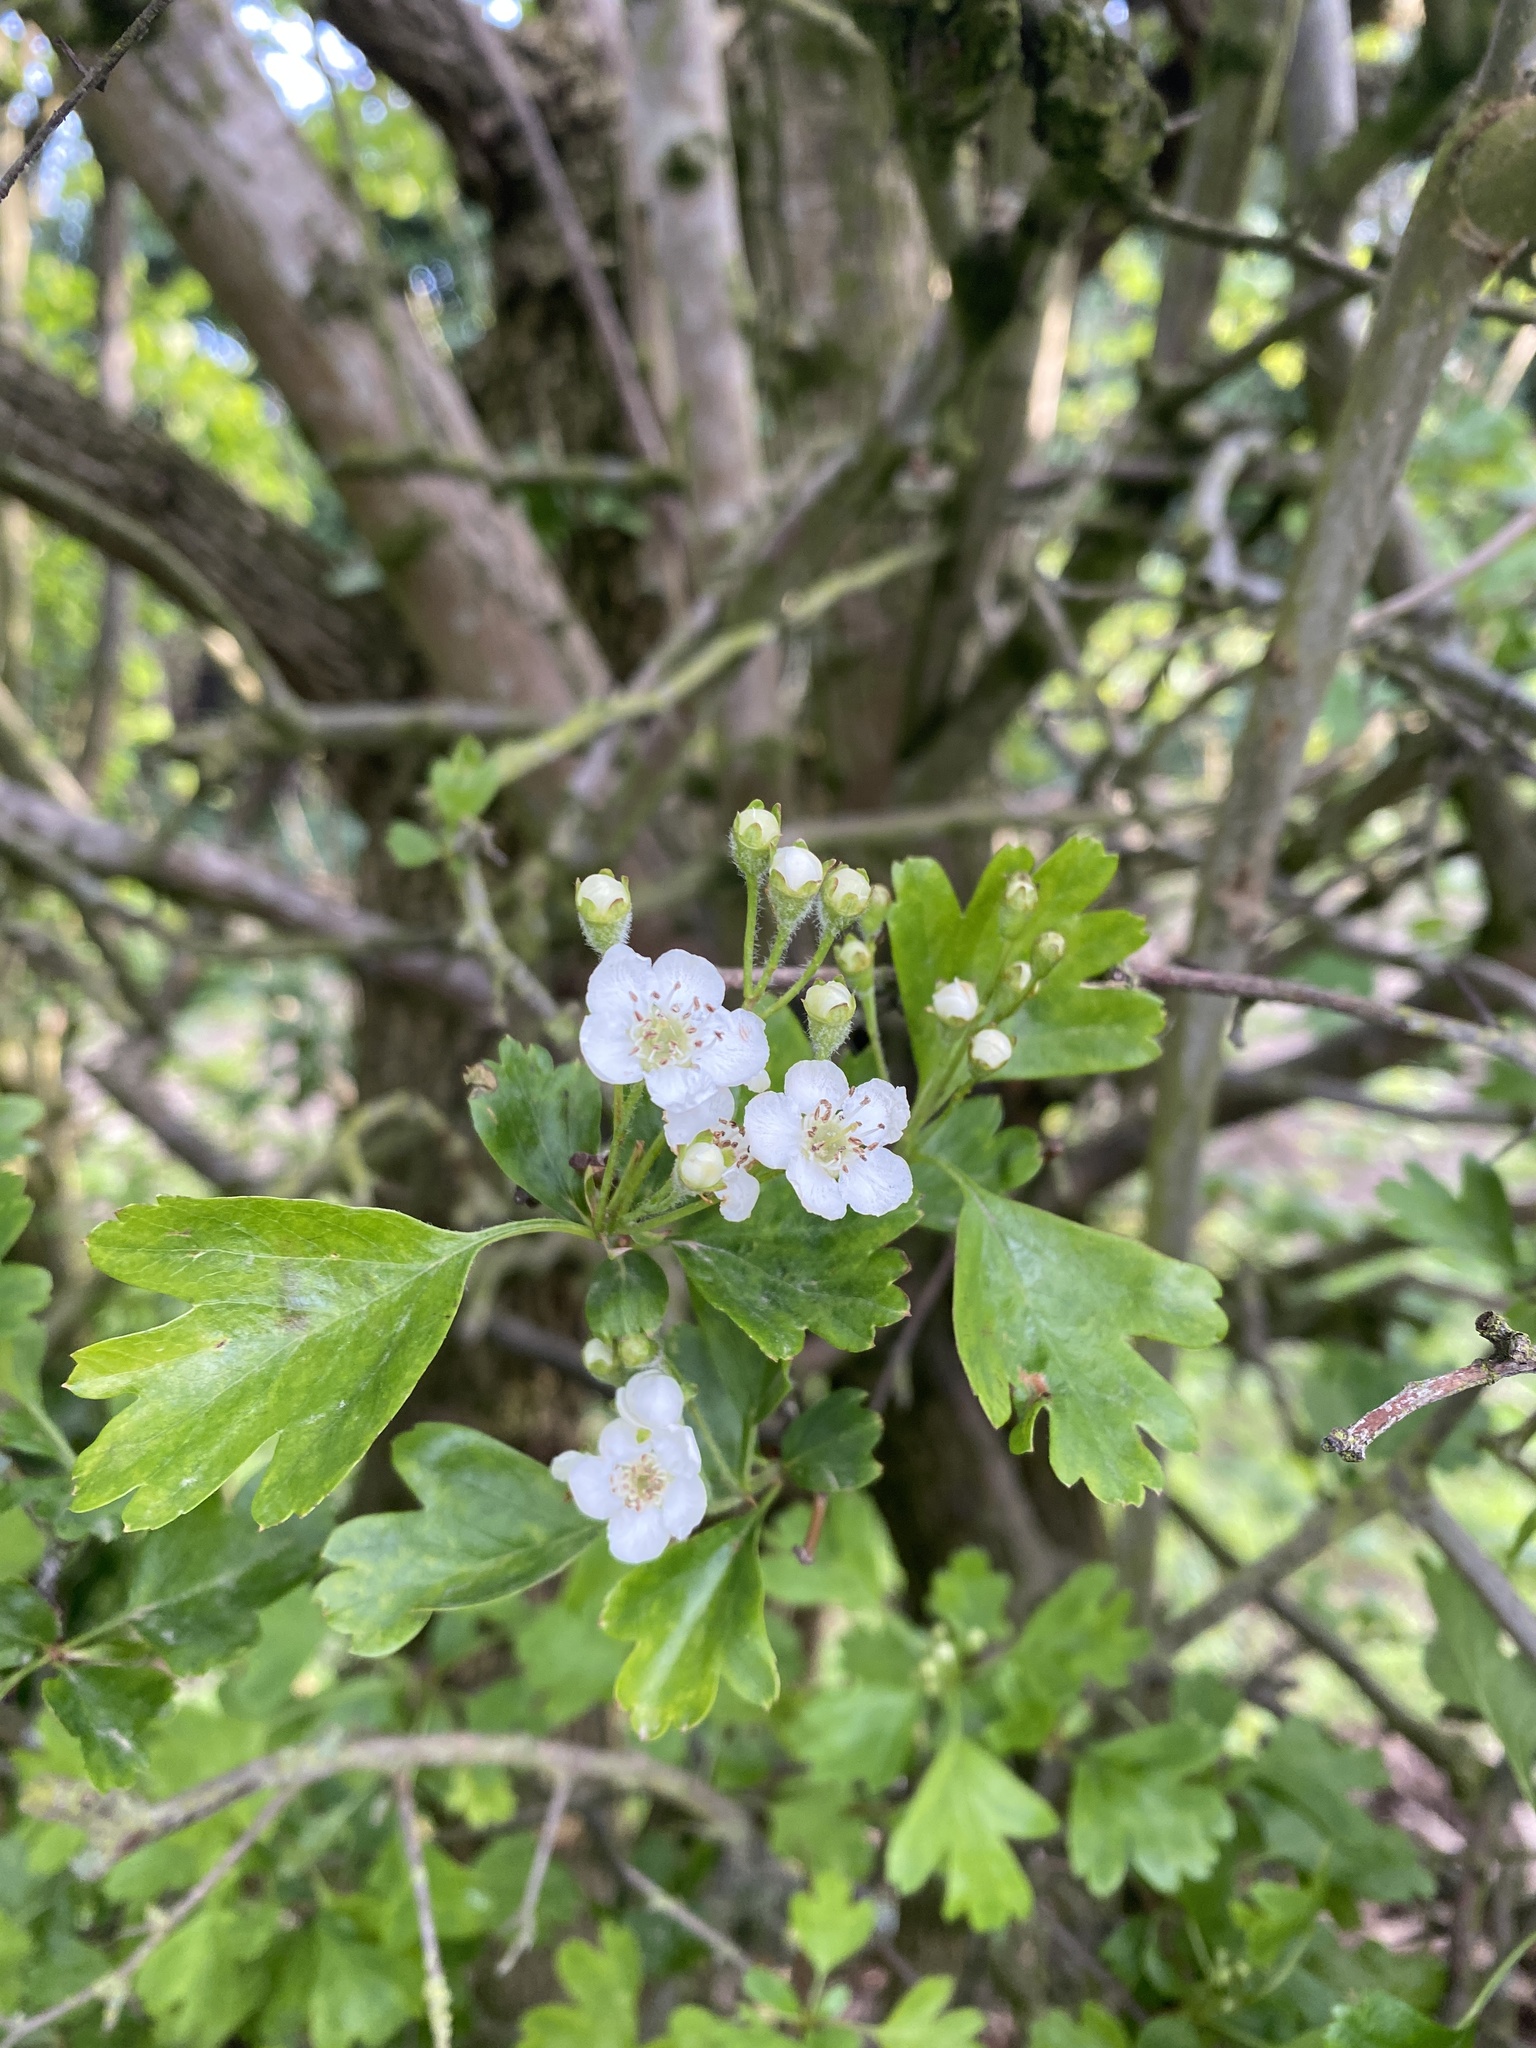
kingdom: Plantae
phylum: Tracheophyta
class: Magnoliopsida
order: Rosales
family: Rosaceae
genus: Crataegus
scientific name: Crataegus monogyna
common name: Hawthorn
